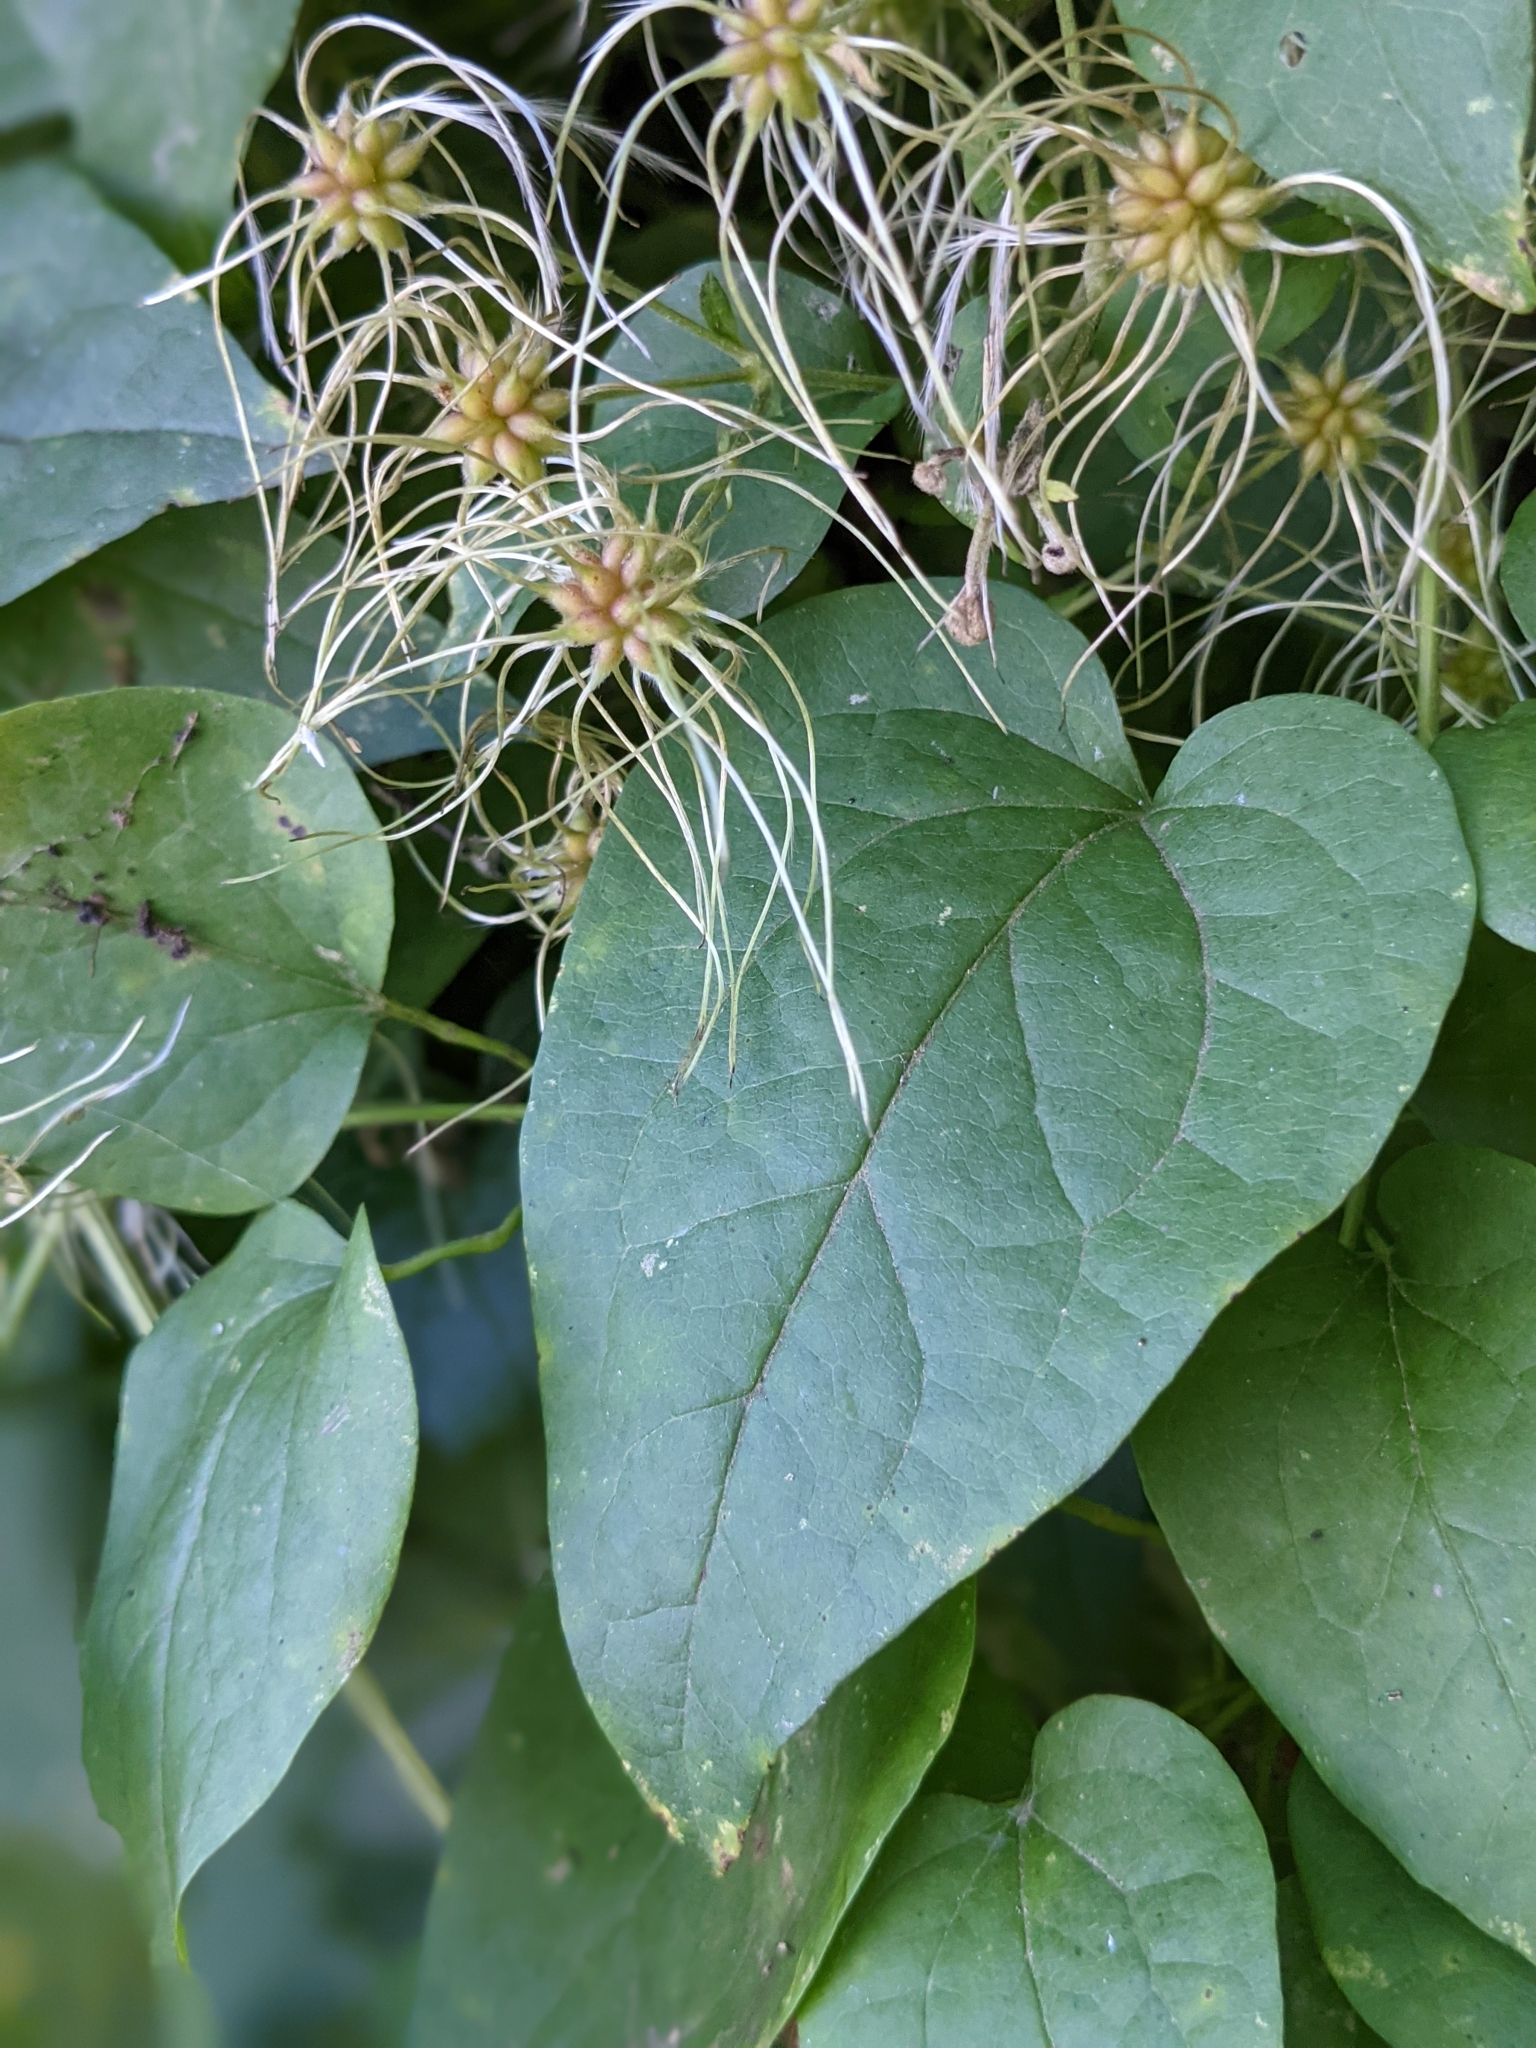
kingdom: Plantae
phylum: Tracheophyta
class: Magnoliopsida
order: Ranunculales
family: Ranunculaceae
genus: Clematis
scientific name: Clematis vitalba
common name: Evergreen clematis
